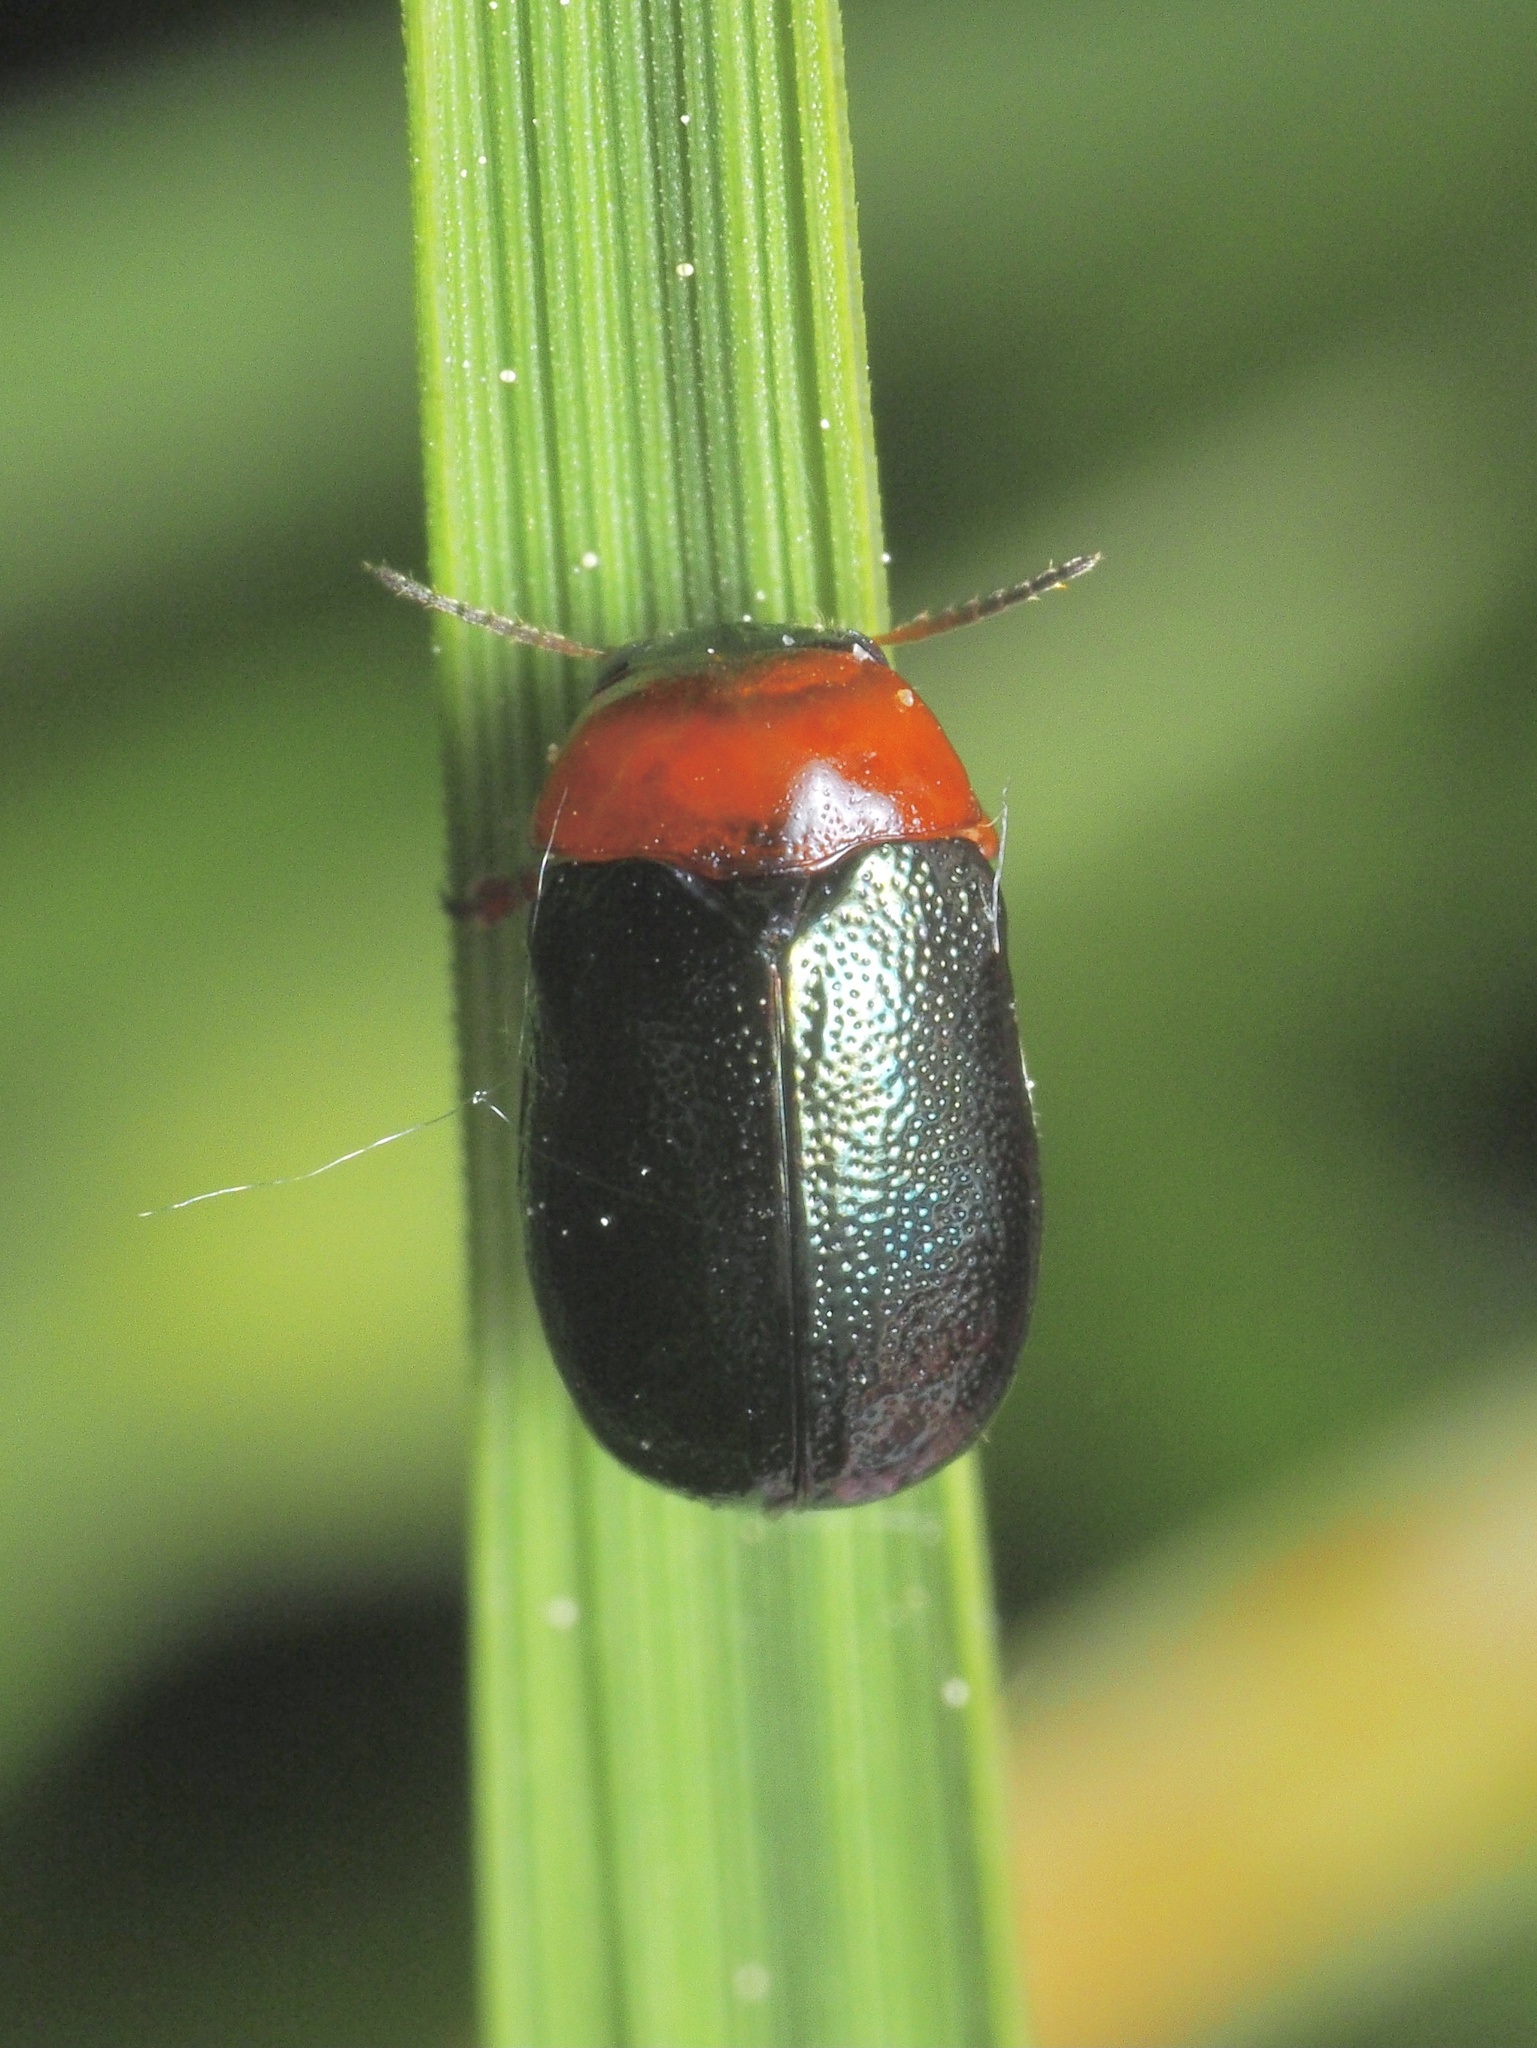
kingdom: Animalia
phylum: Arthropoda
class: Insecta
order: Coleoptera
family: Chrysomelidae
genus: Smaragdina
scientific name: Smaragdina salicina
